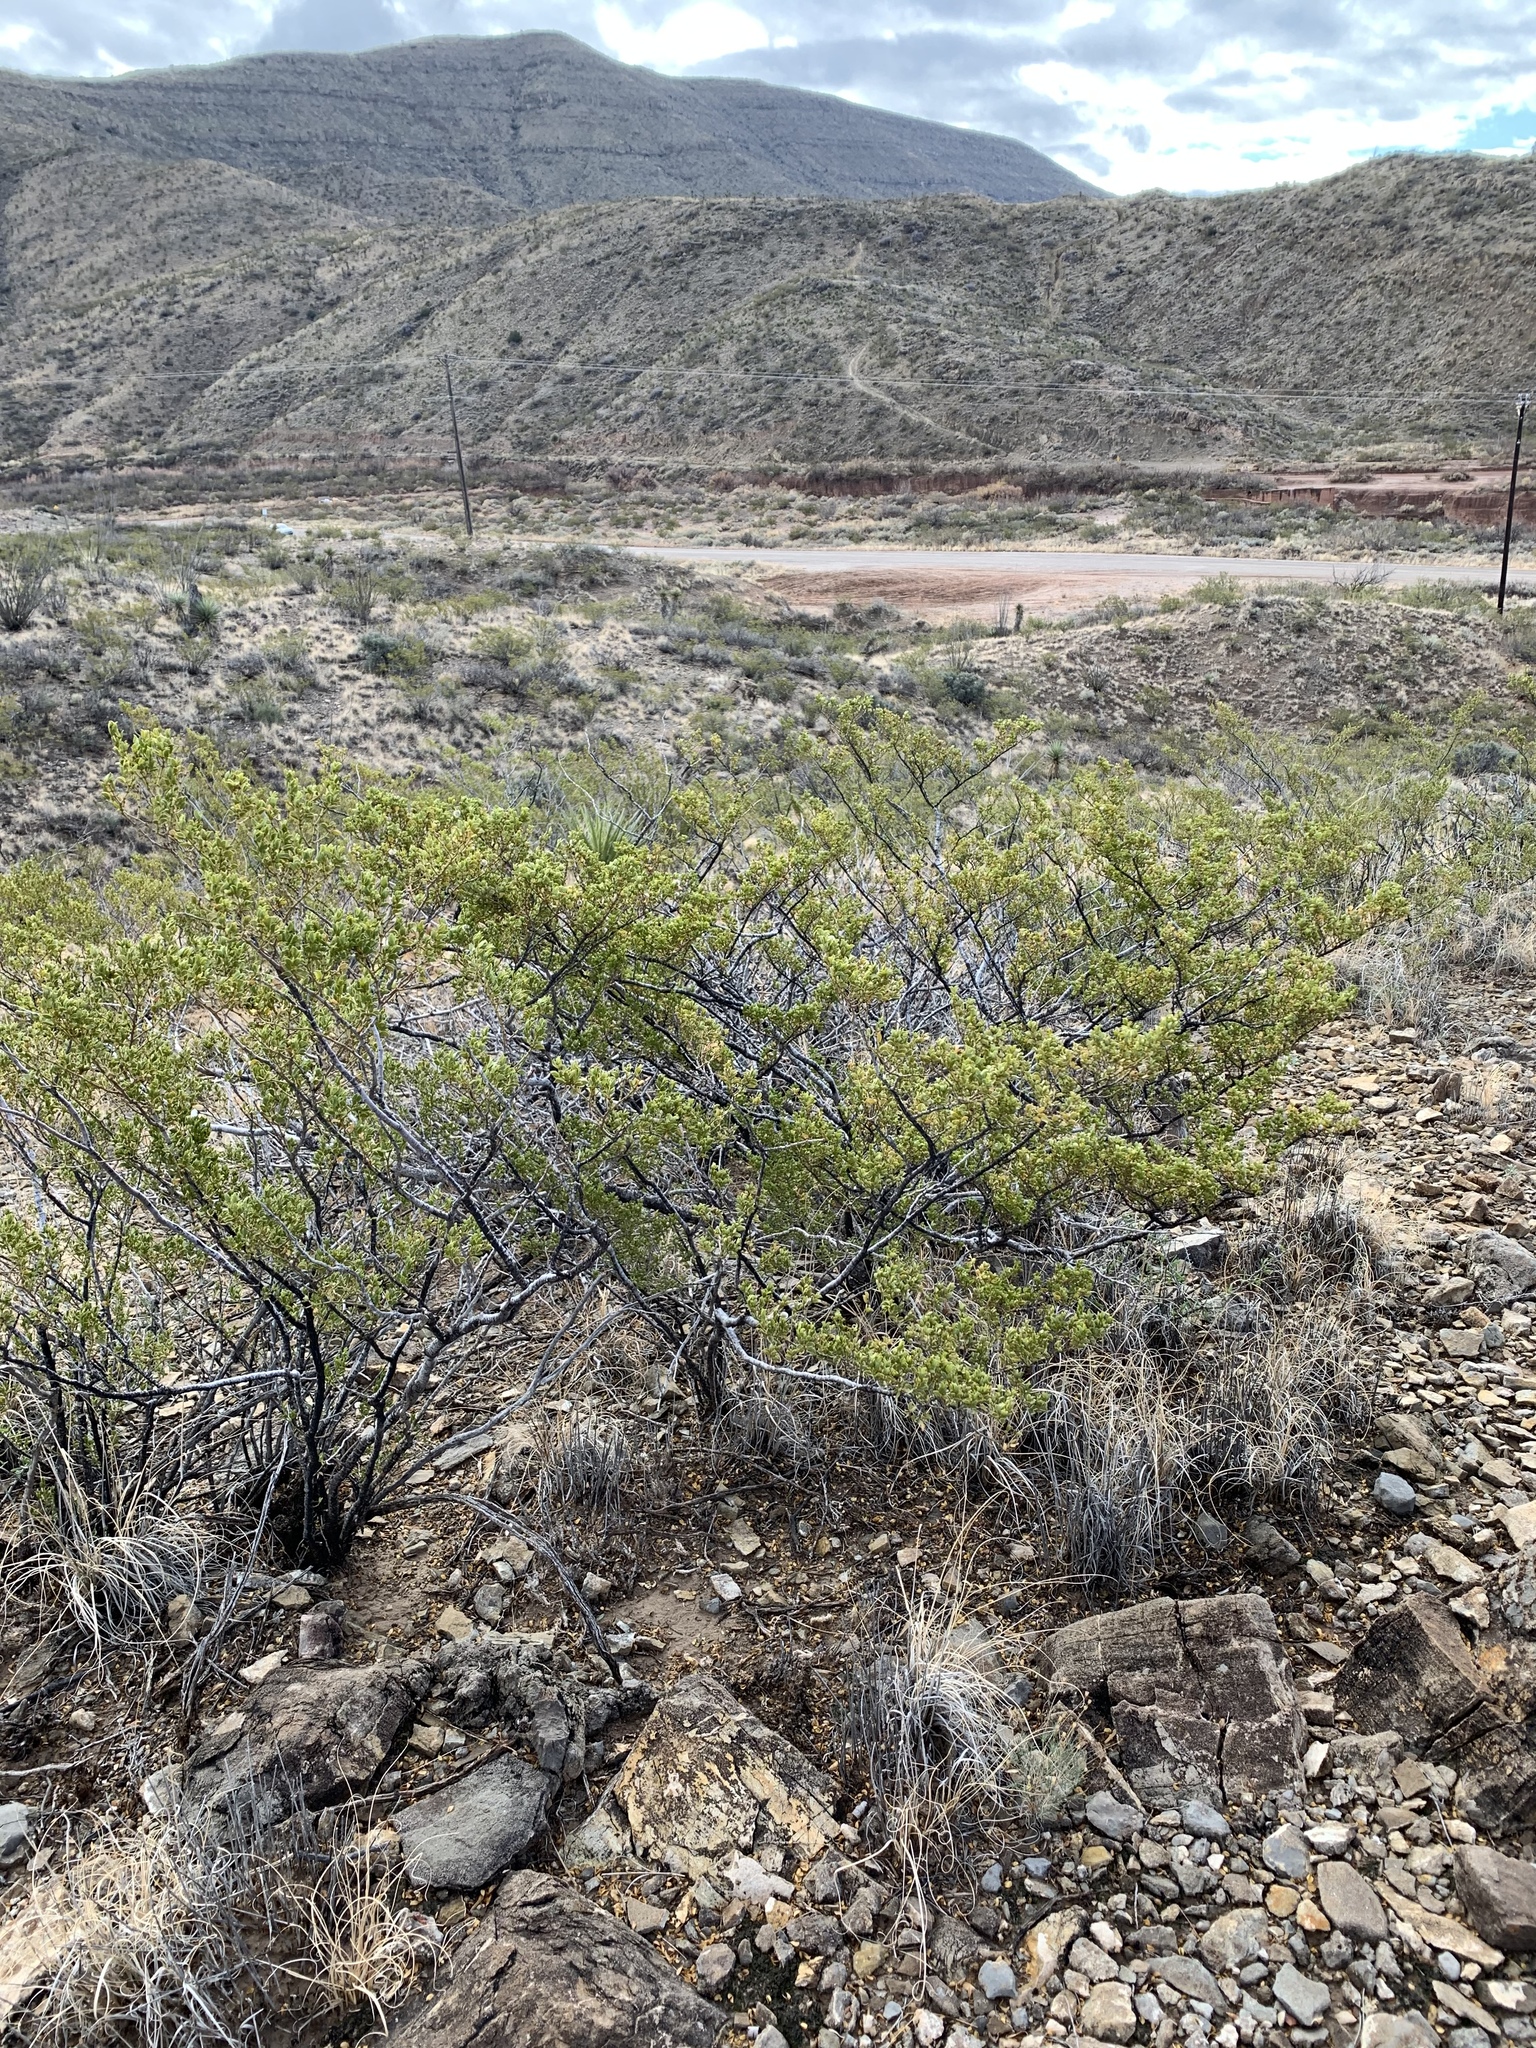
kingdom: Plantae
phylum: Tracheophyta
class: Magnoliopsida
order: Zygophyllales
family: Zygophyllaceae
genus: Larrea
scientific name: Larrea tridentata
